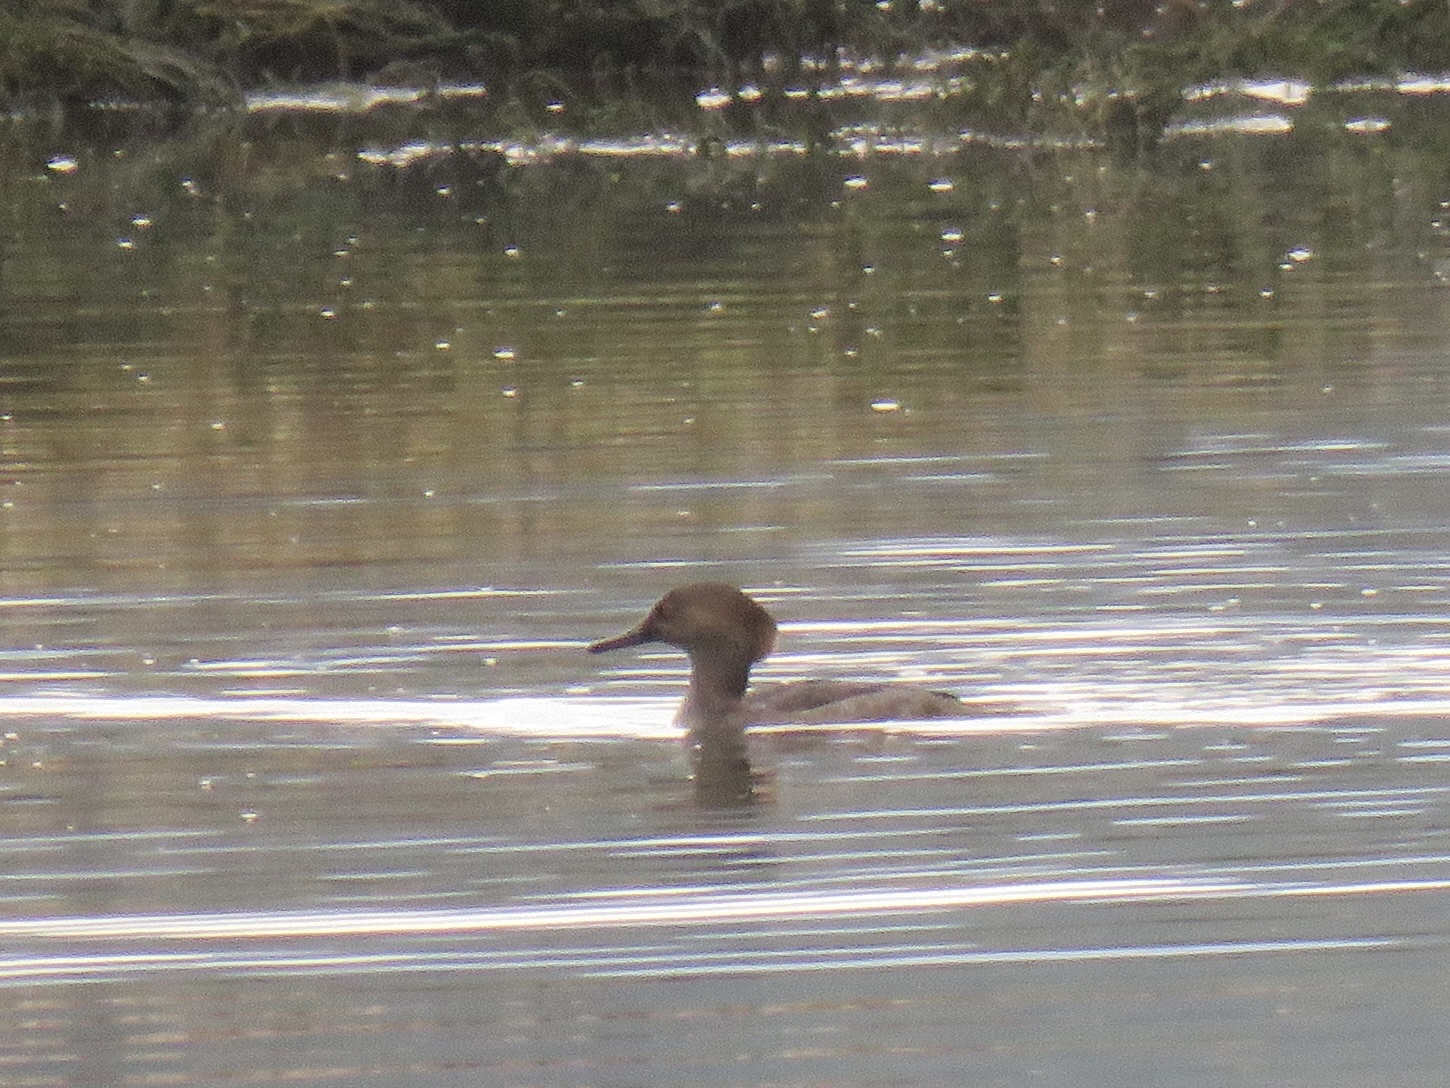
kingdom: Animalia
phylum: Chordata
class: Aves
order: Anseriformes
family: Anatidae
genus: Lophodytes
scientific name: Lophodytes cucullatus
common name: Hooded merganser
